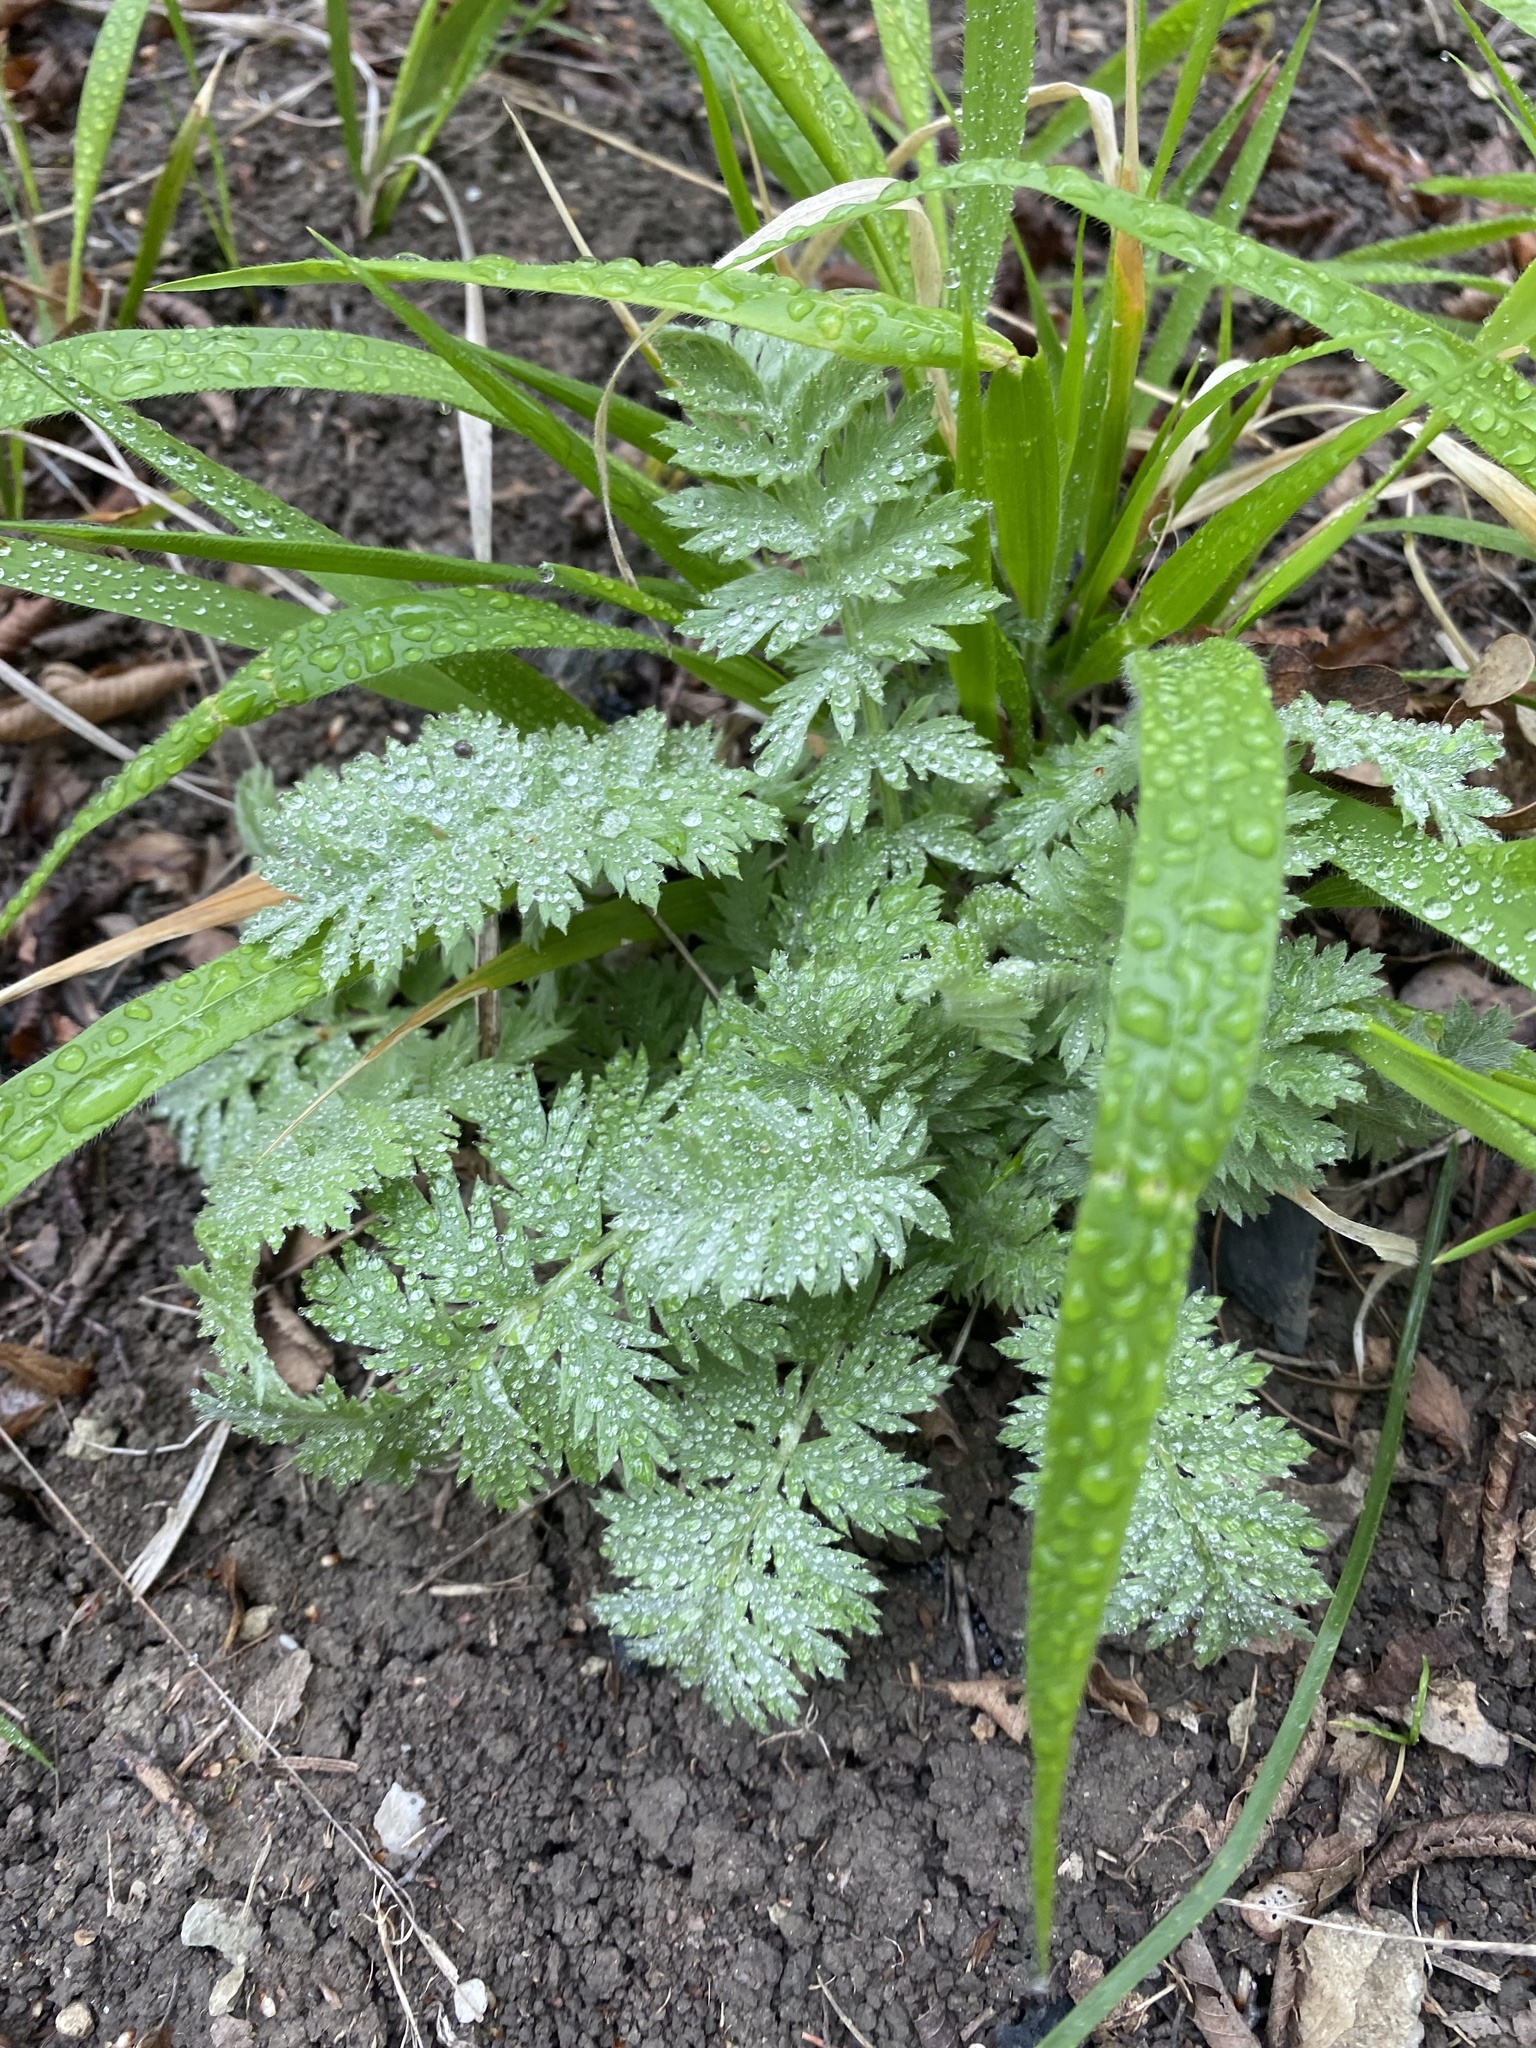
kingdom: Plantae
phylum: Tracheophyta
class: Magnoliopsida
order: Asterales
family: Asteraceae
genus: Tanacetum
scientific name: Tanacetum poteriifolium
